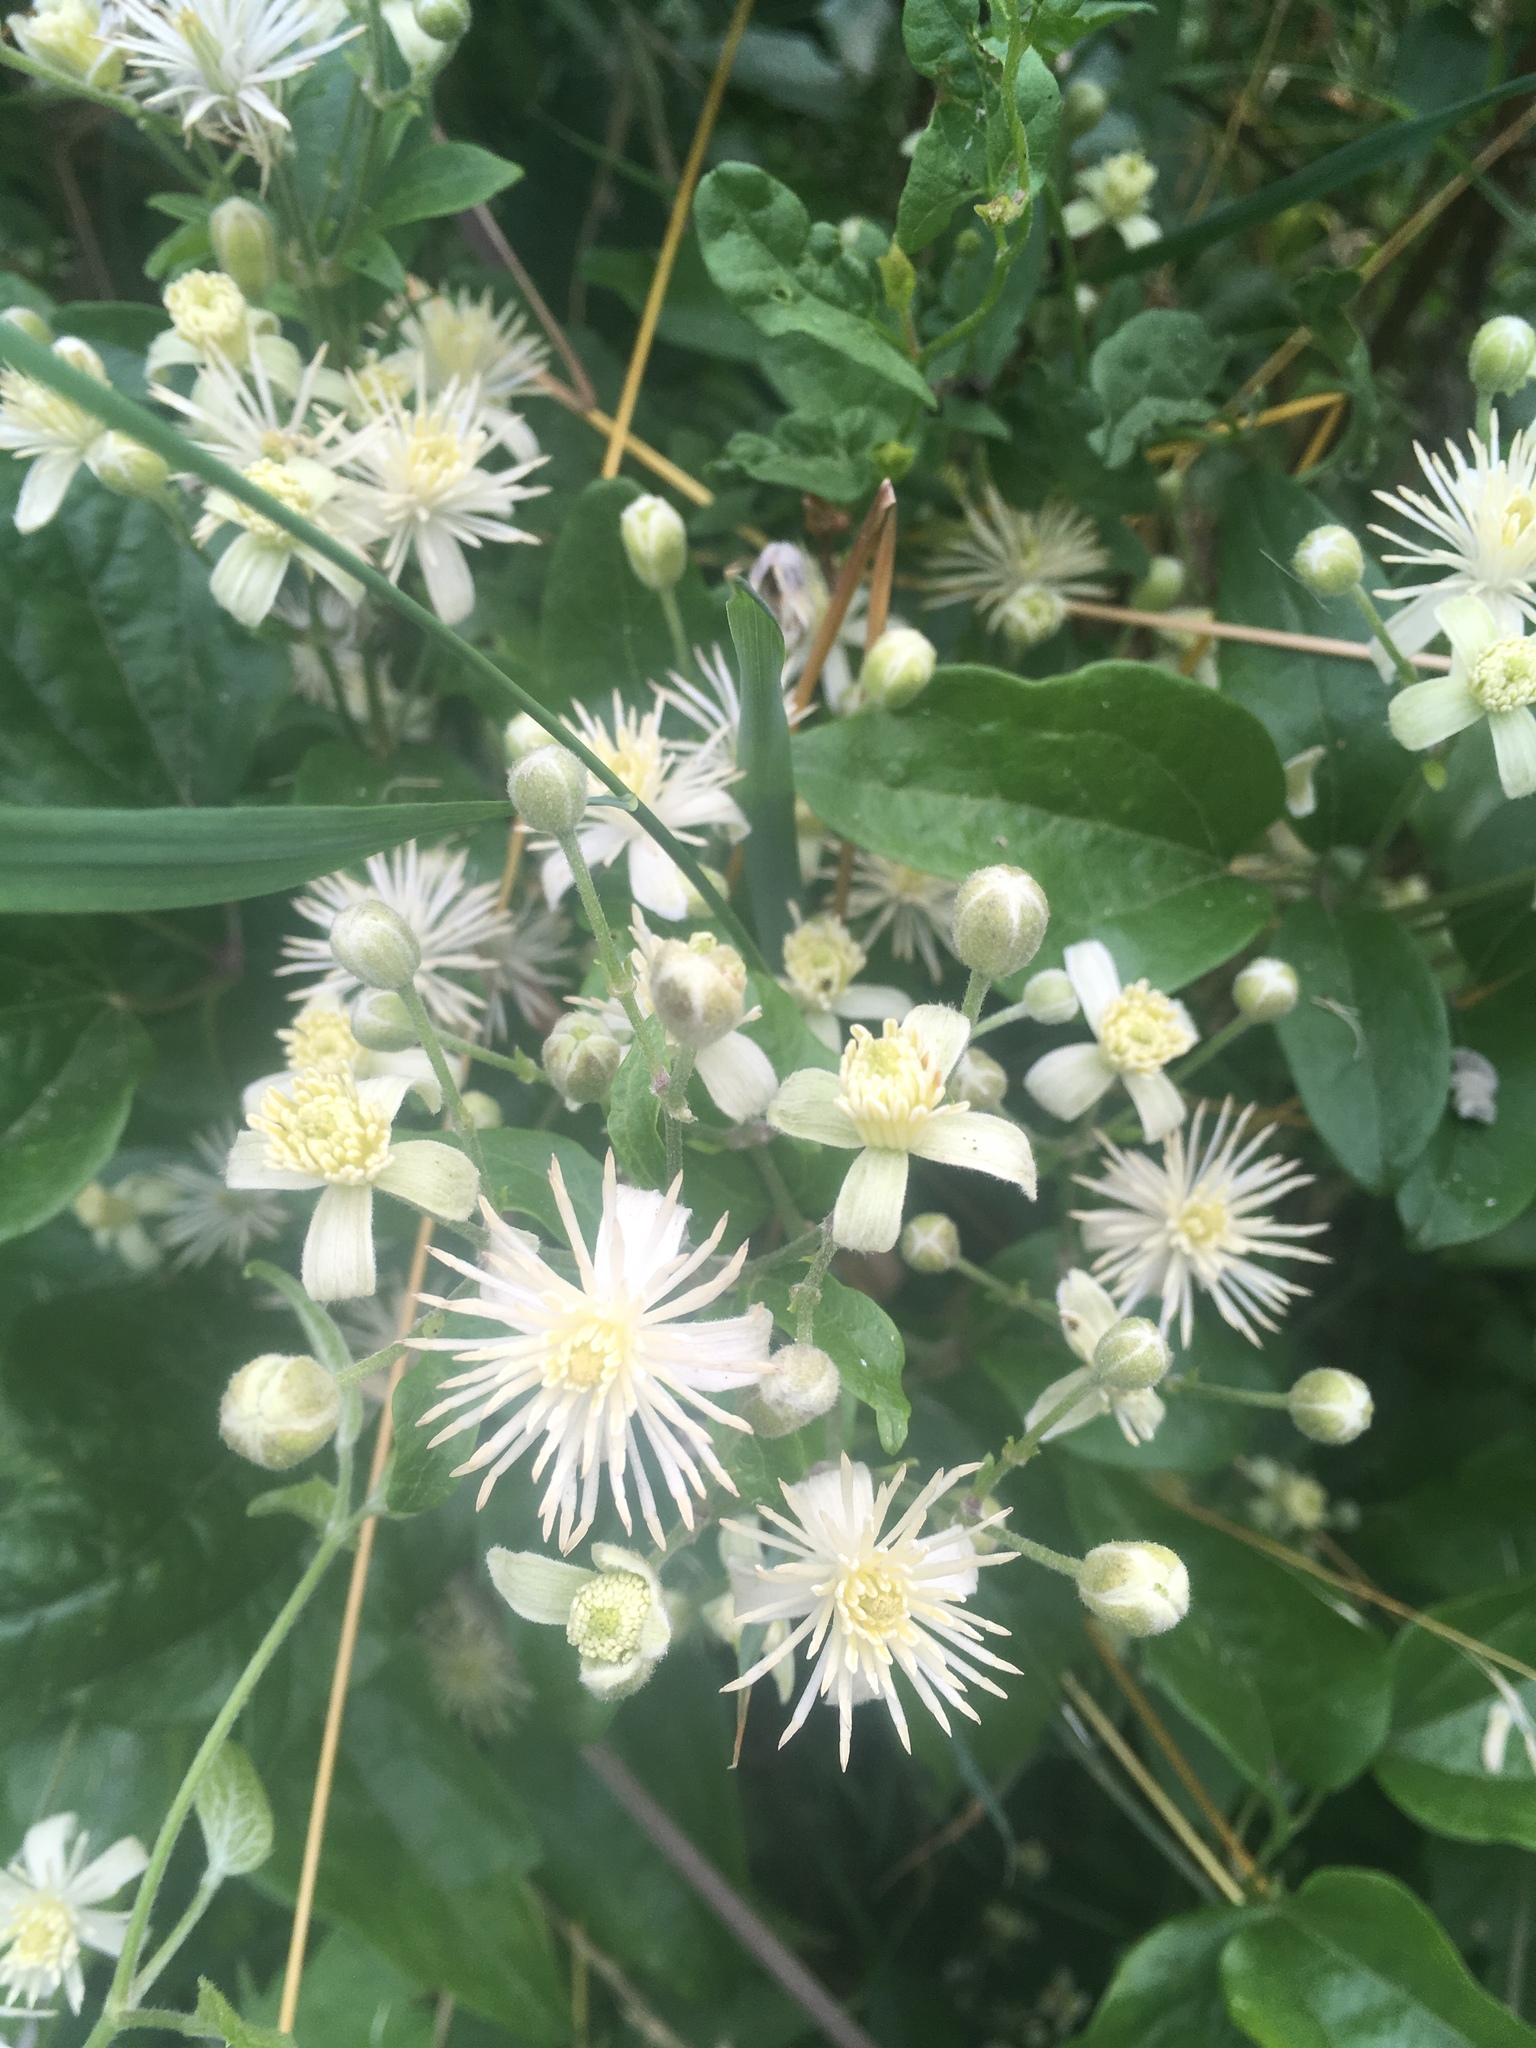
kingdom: Plantae
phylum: Tracheophyta
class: Magnoliopsida
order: Ranunculales
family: Ranunculaceae
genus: Clematis
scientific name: Clematis vitalba
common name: Evergreen clematis
